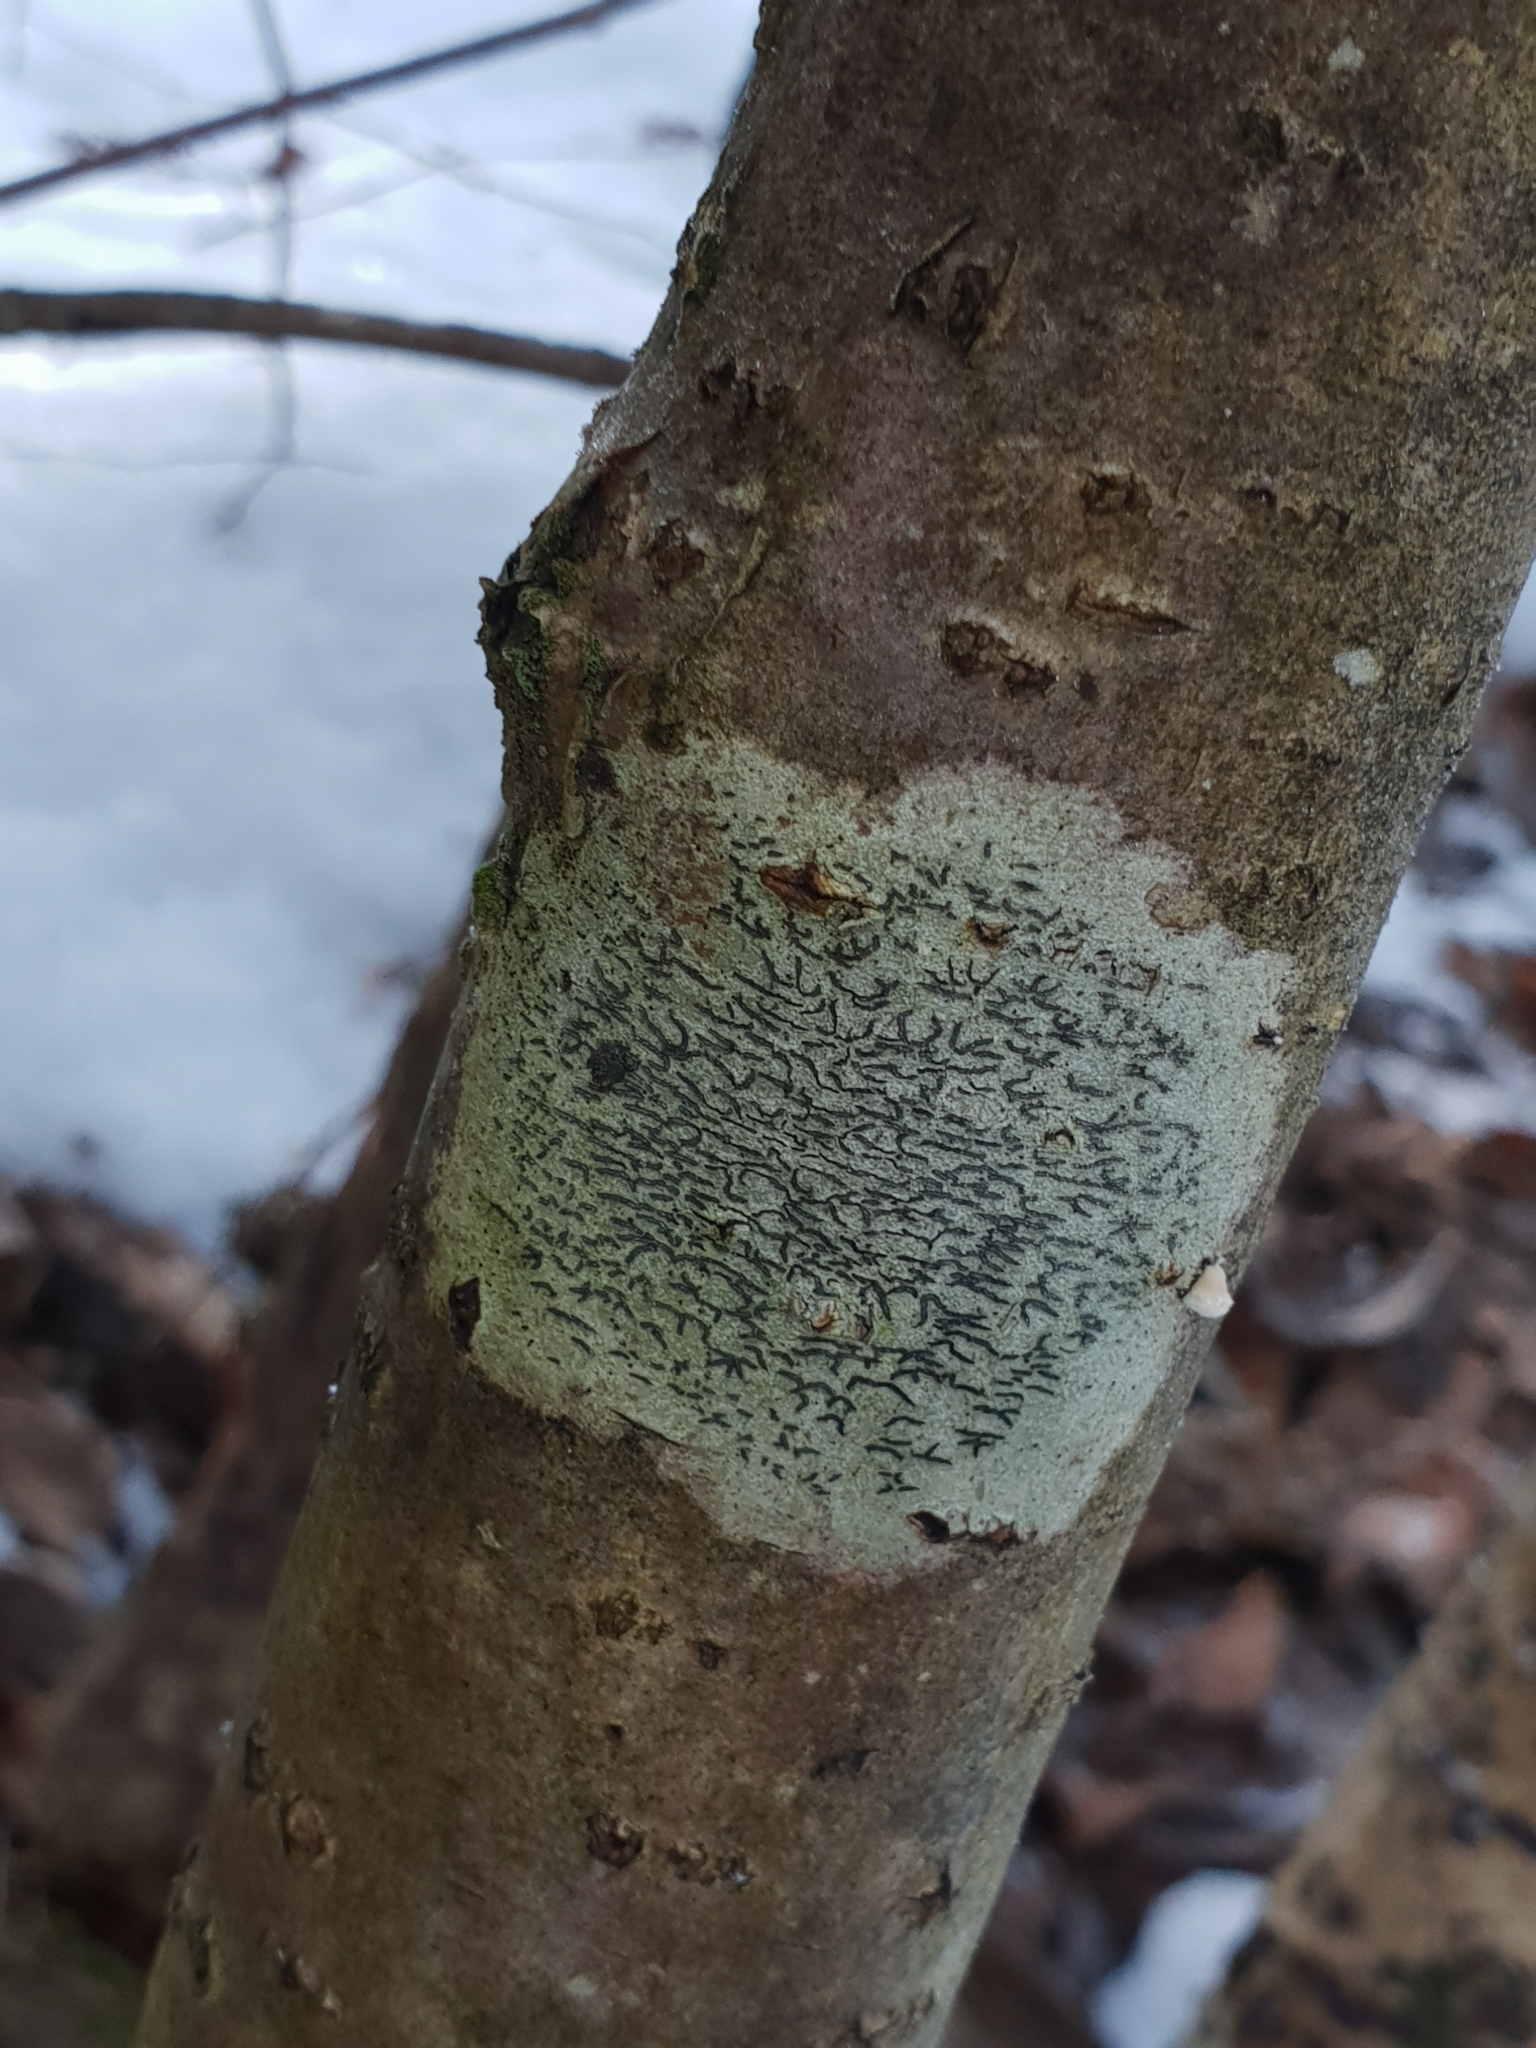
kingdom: Fungi
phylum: Ascomycota
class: Lecanoromycetes
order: Ostropales
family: Graphidaceae
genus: Graphis
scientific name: Graphis scripta
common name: Script lichen
